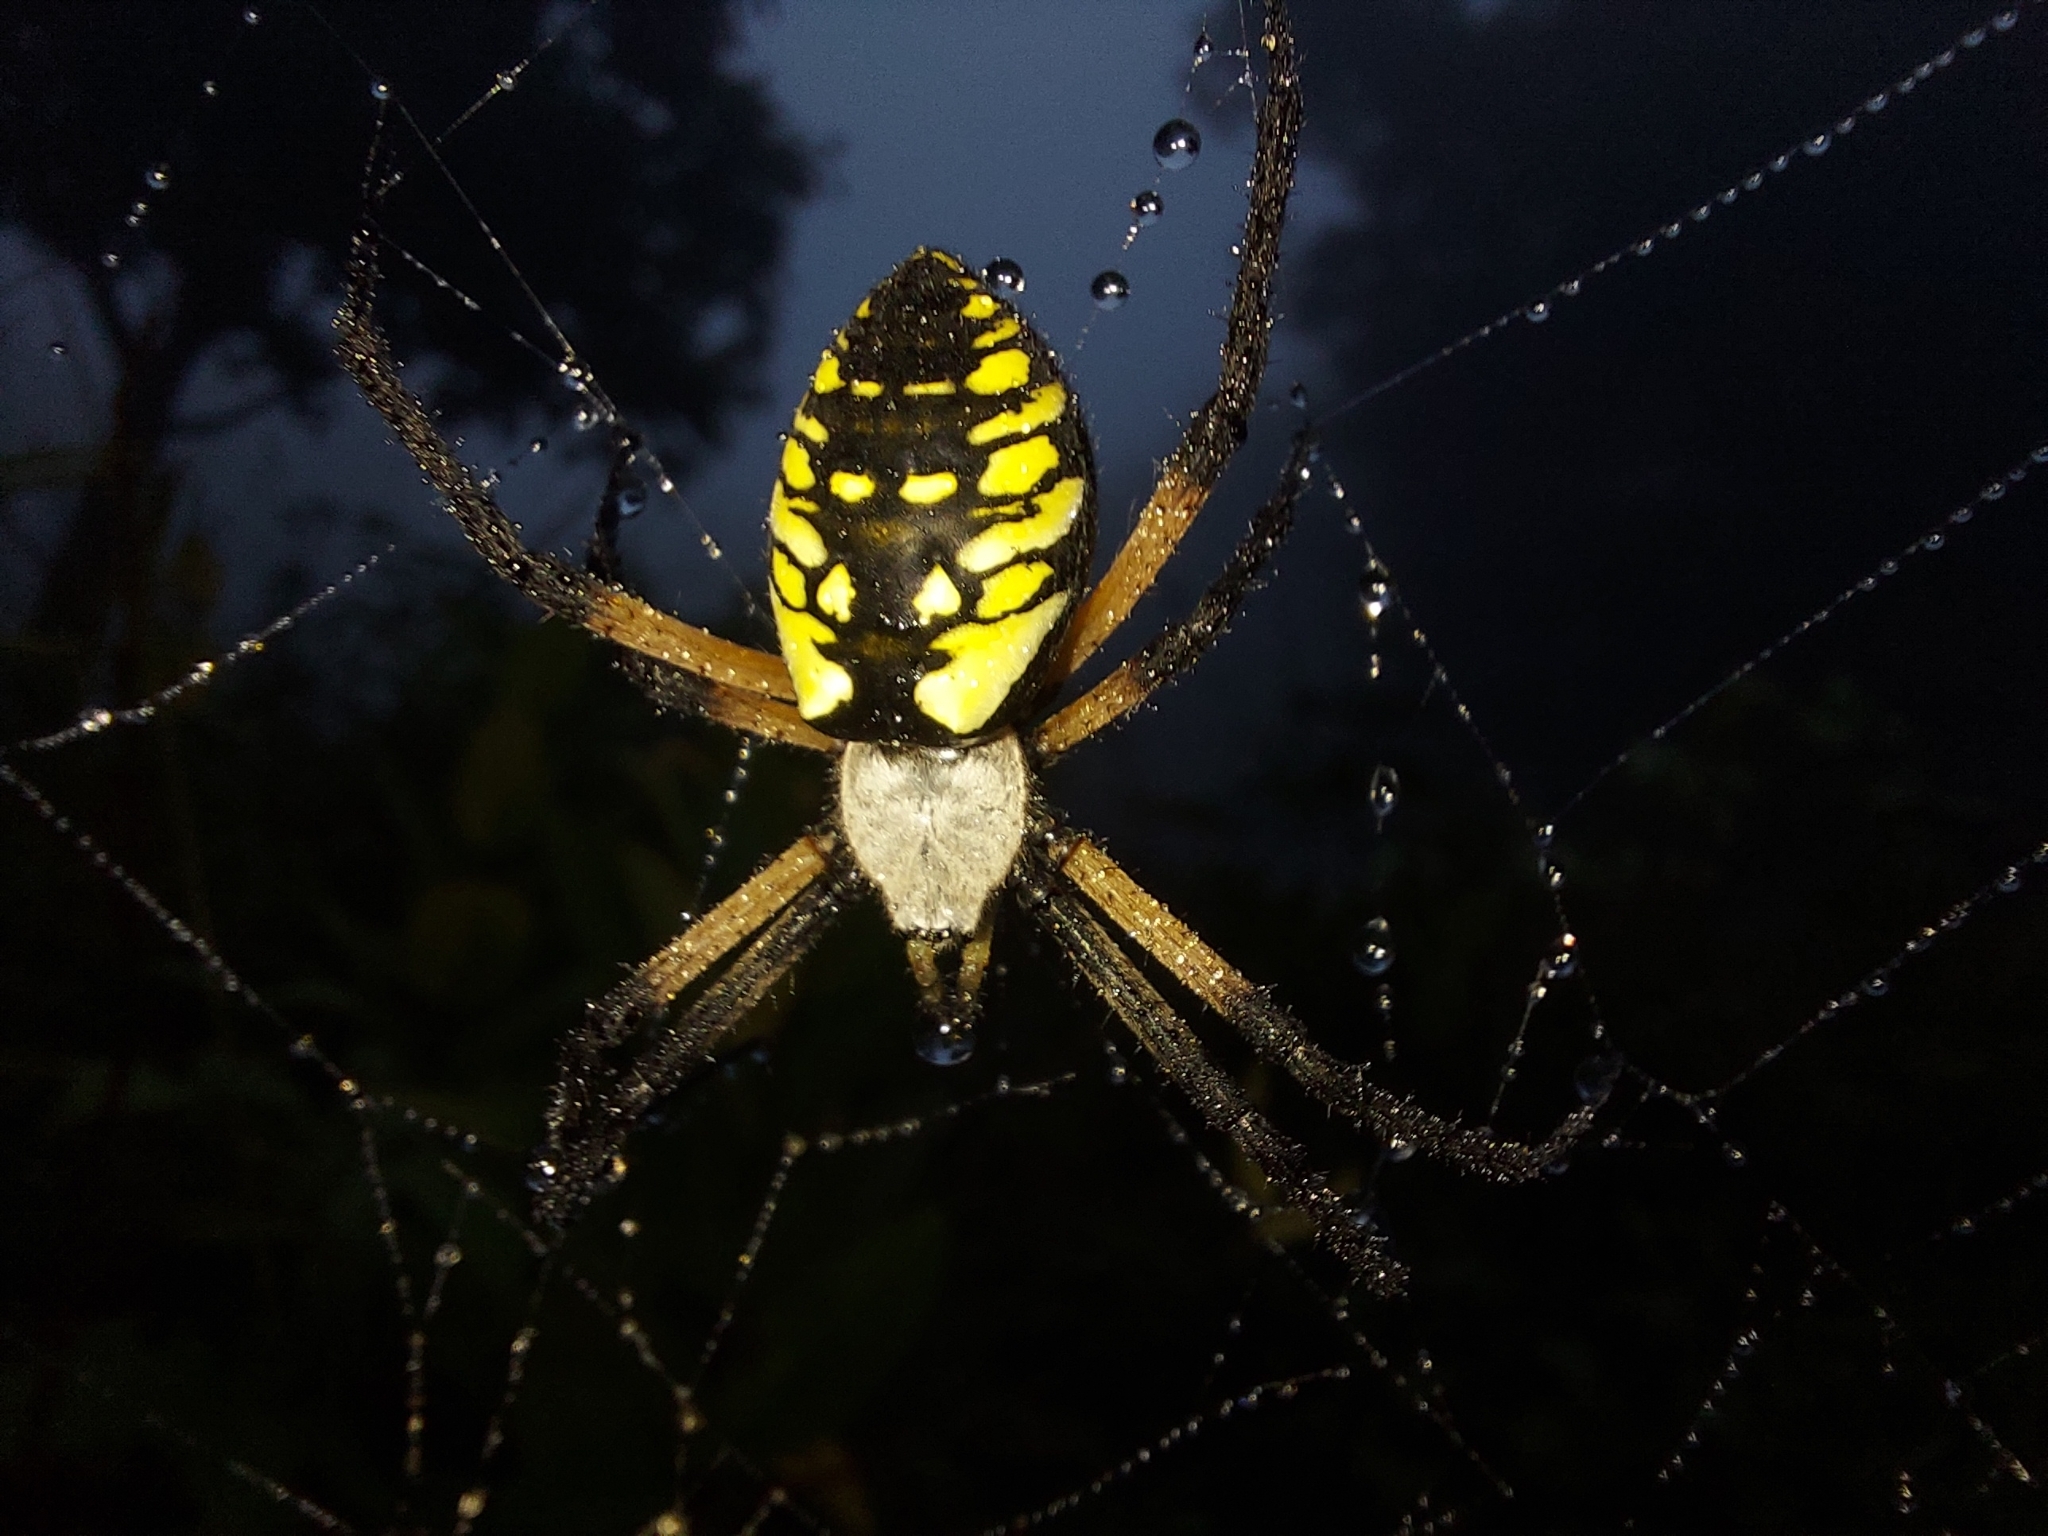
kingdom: Animalia
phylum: Arthropoda
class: Arachnida
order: Araneae
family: Araneidae
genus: Argiope
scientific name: Argiope aurantia
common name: Orb weavers
